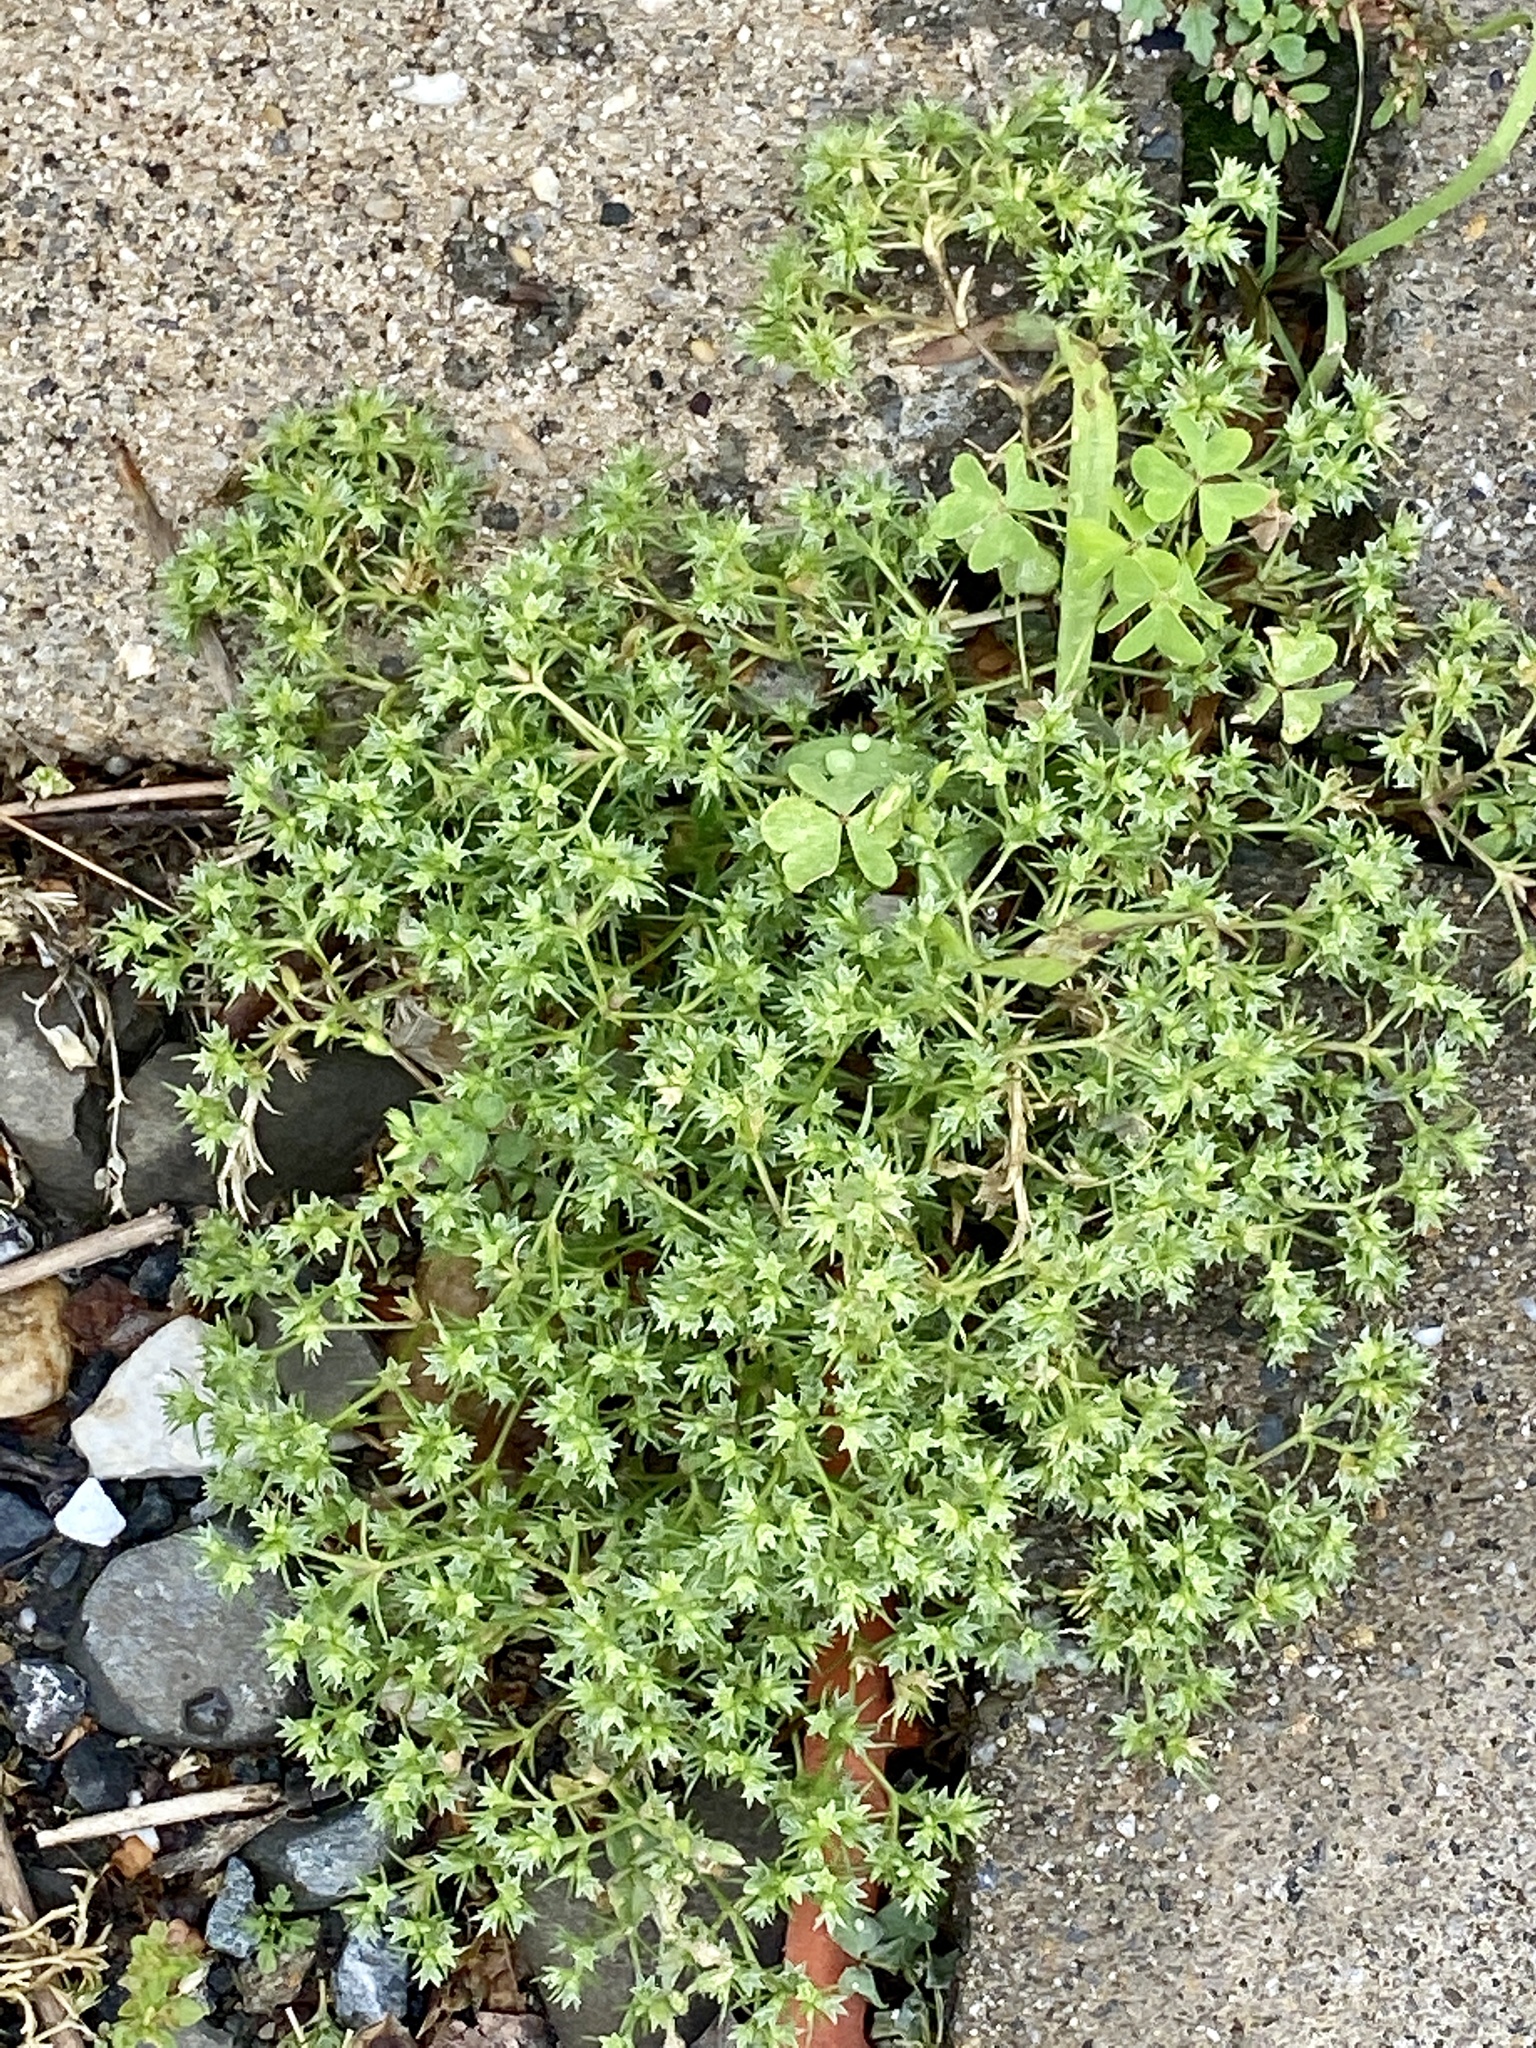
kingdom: Plantae
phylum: Tracheophyta
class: Magnoliopsida
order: Caryophyllales
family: Caryophyllaceae
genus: Scleranthus
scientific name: Scleranthus annuus
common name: Annual knawel
